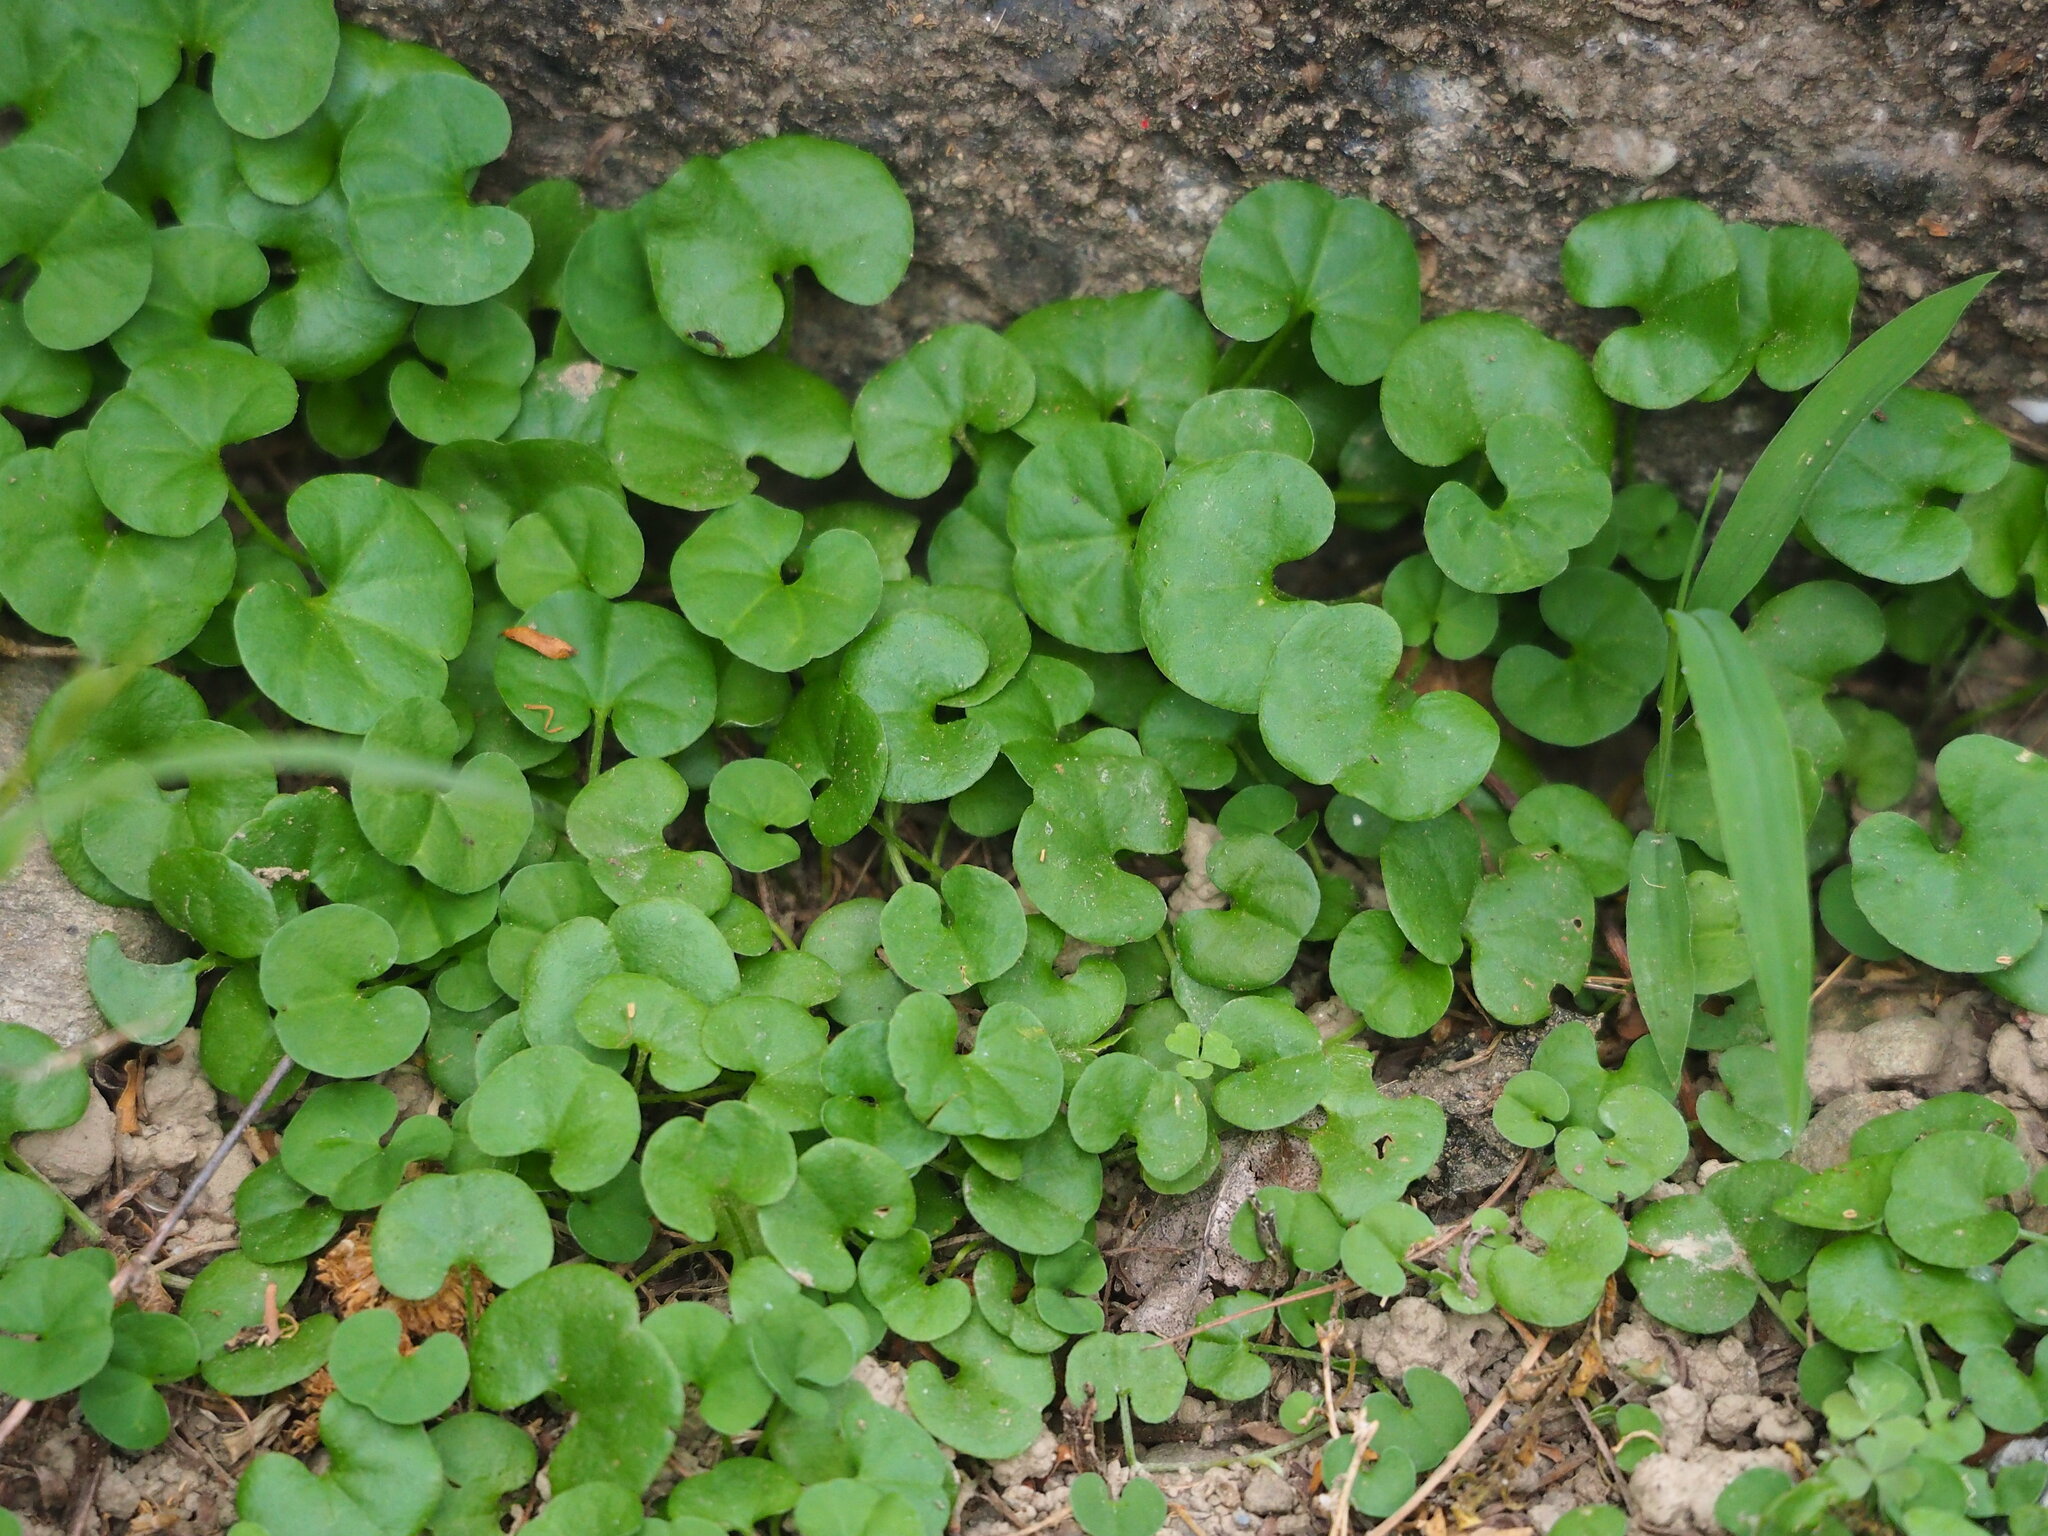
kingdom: Plantae
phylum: Tracheophyta
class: Magnoliopsida
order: Solanales
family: Convolvulaceae
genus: Dichondra
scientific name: Dichondra micrantha
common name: Kidneyweed
